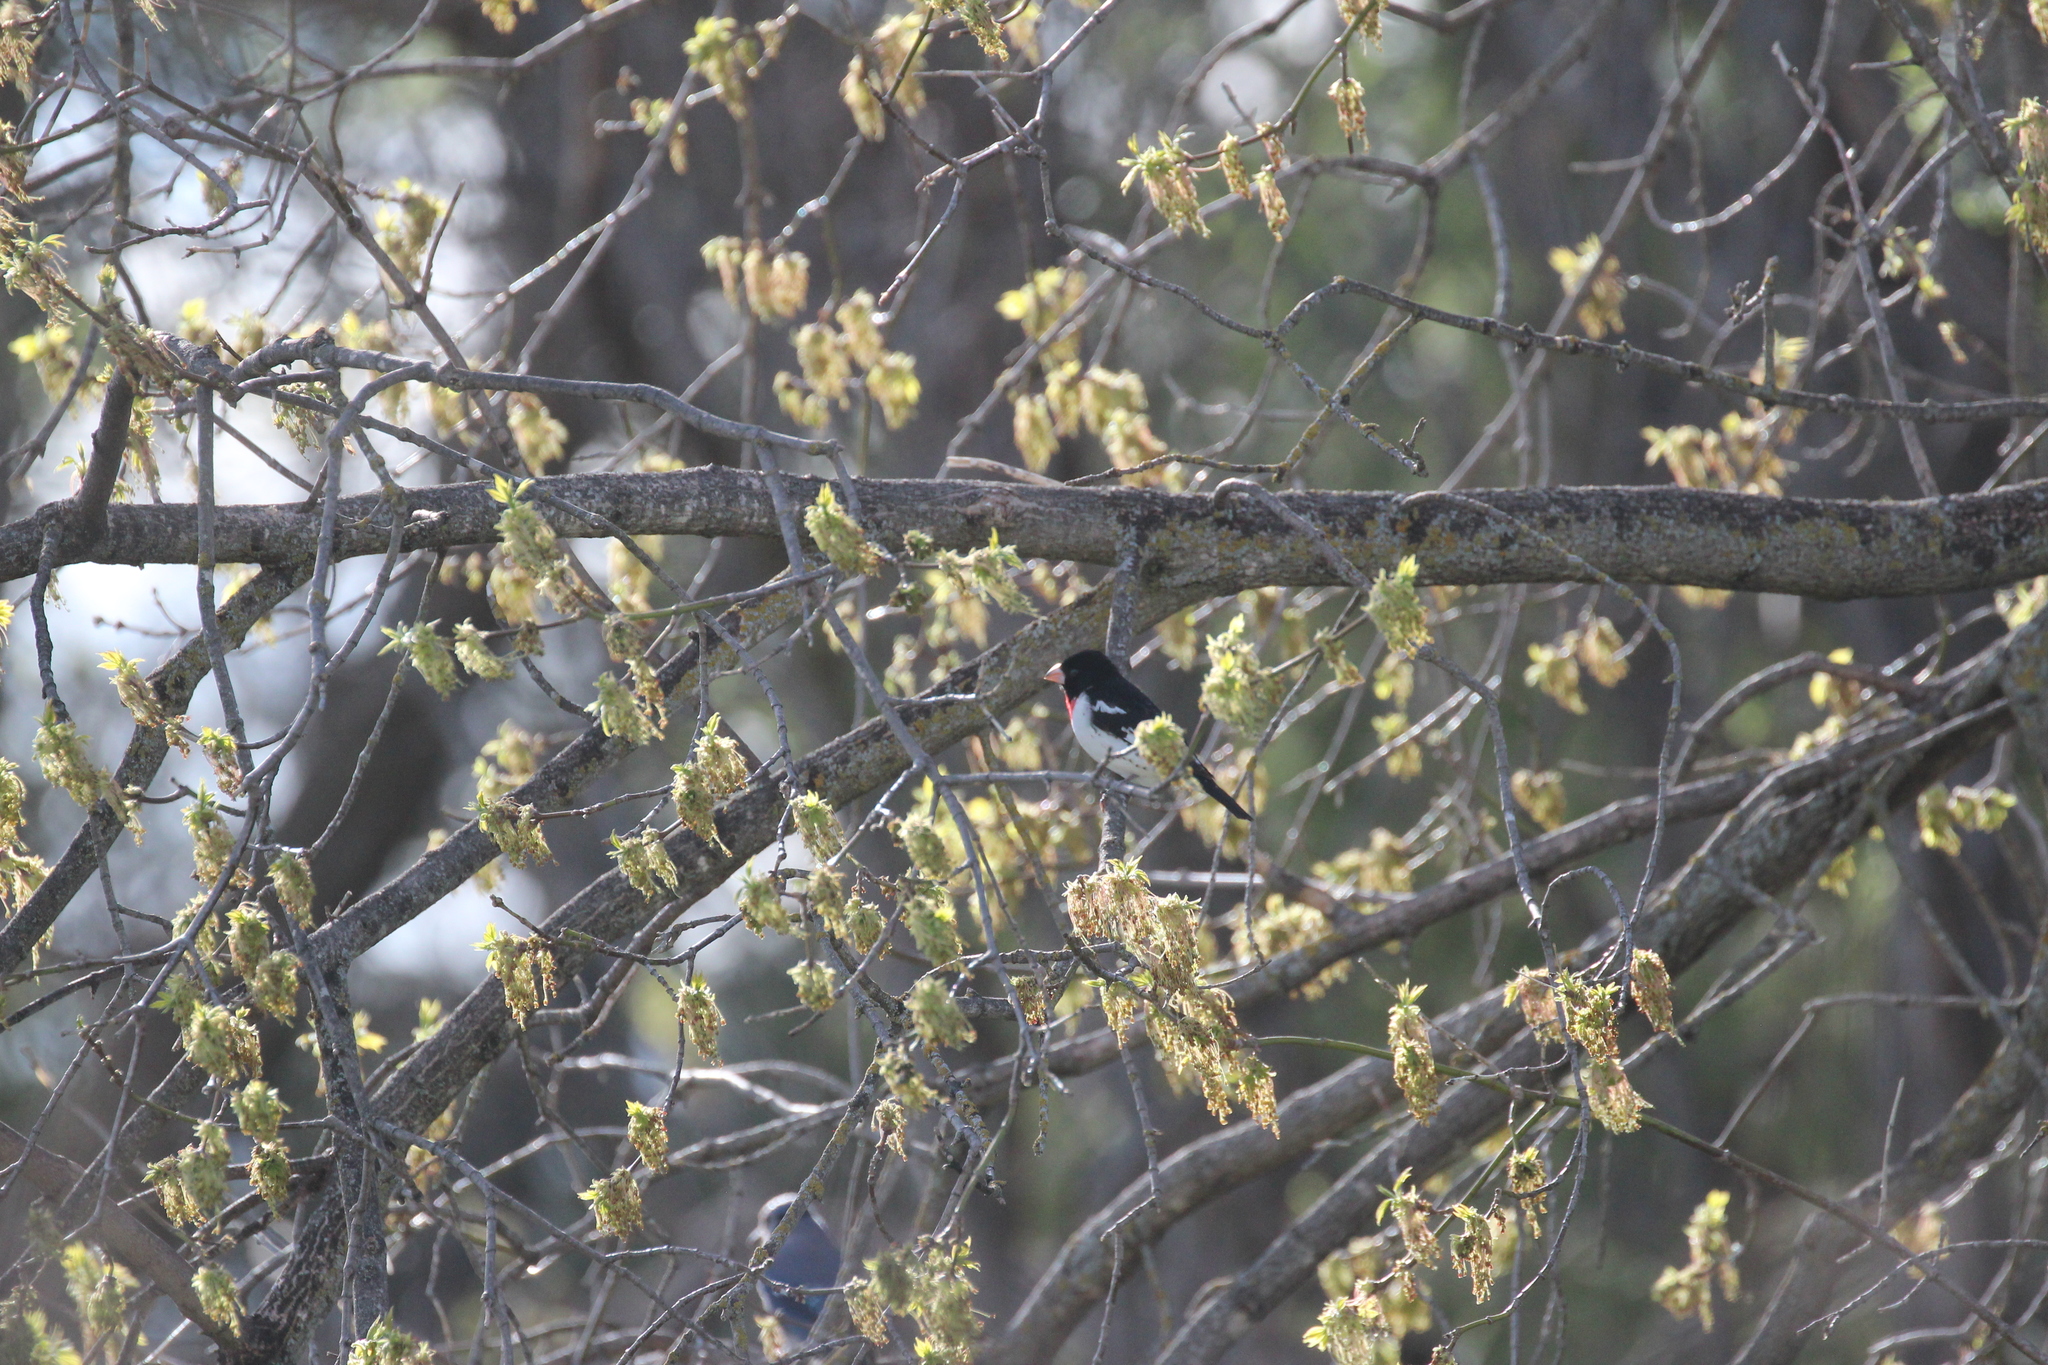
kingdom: Animalia
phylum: Chordata
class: Aves
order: Passeriformes
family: Cardinalidae
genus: Pheucticus
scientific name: Pheucticus ludovicianus
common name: Rose-breasted grosbeak
